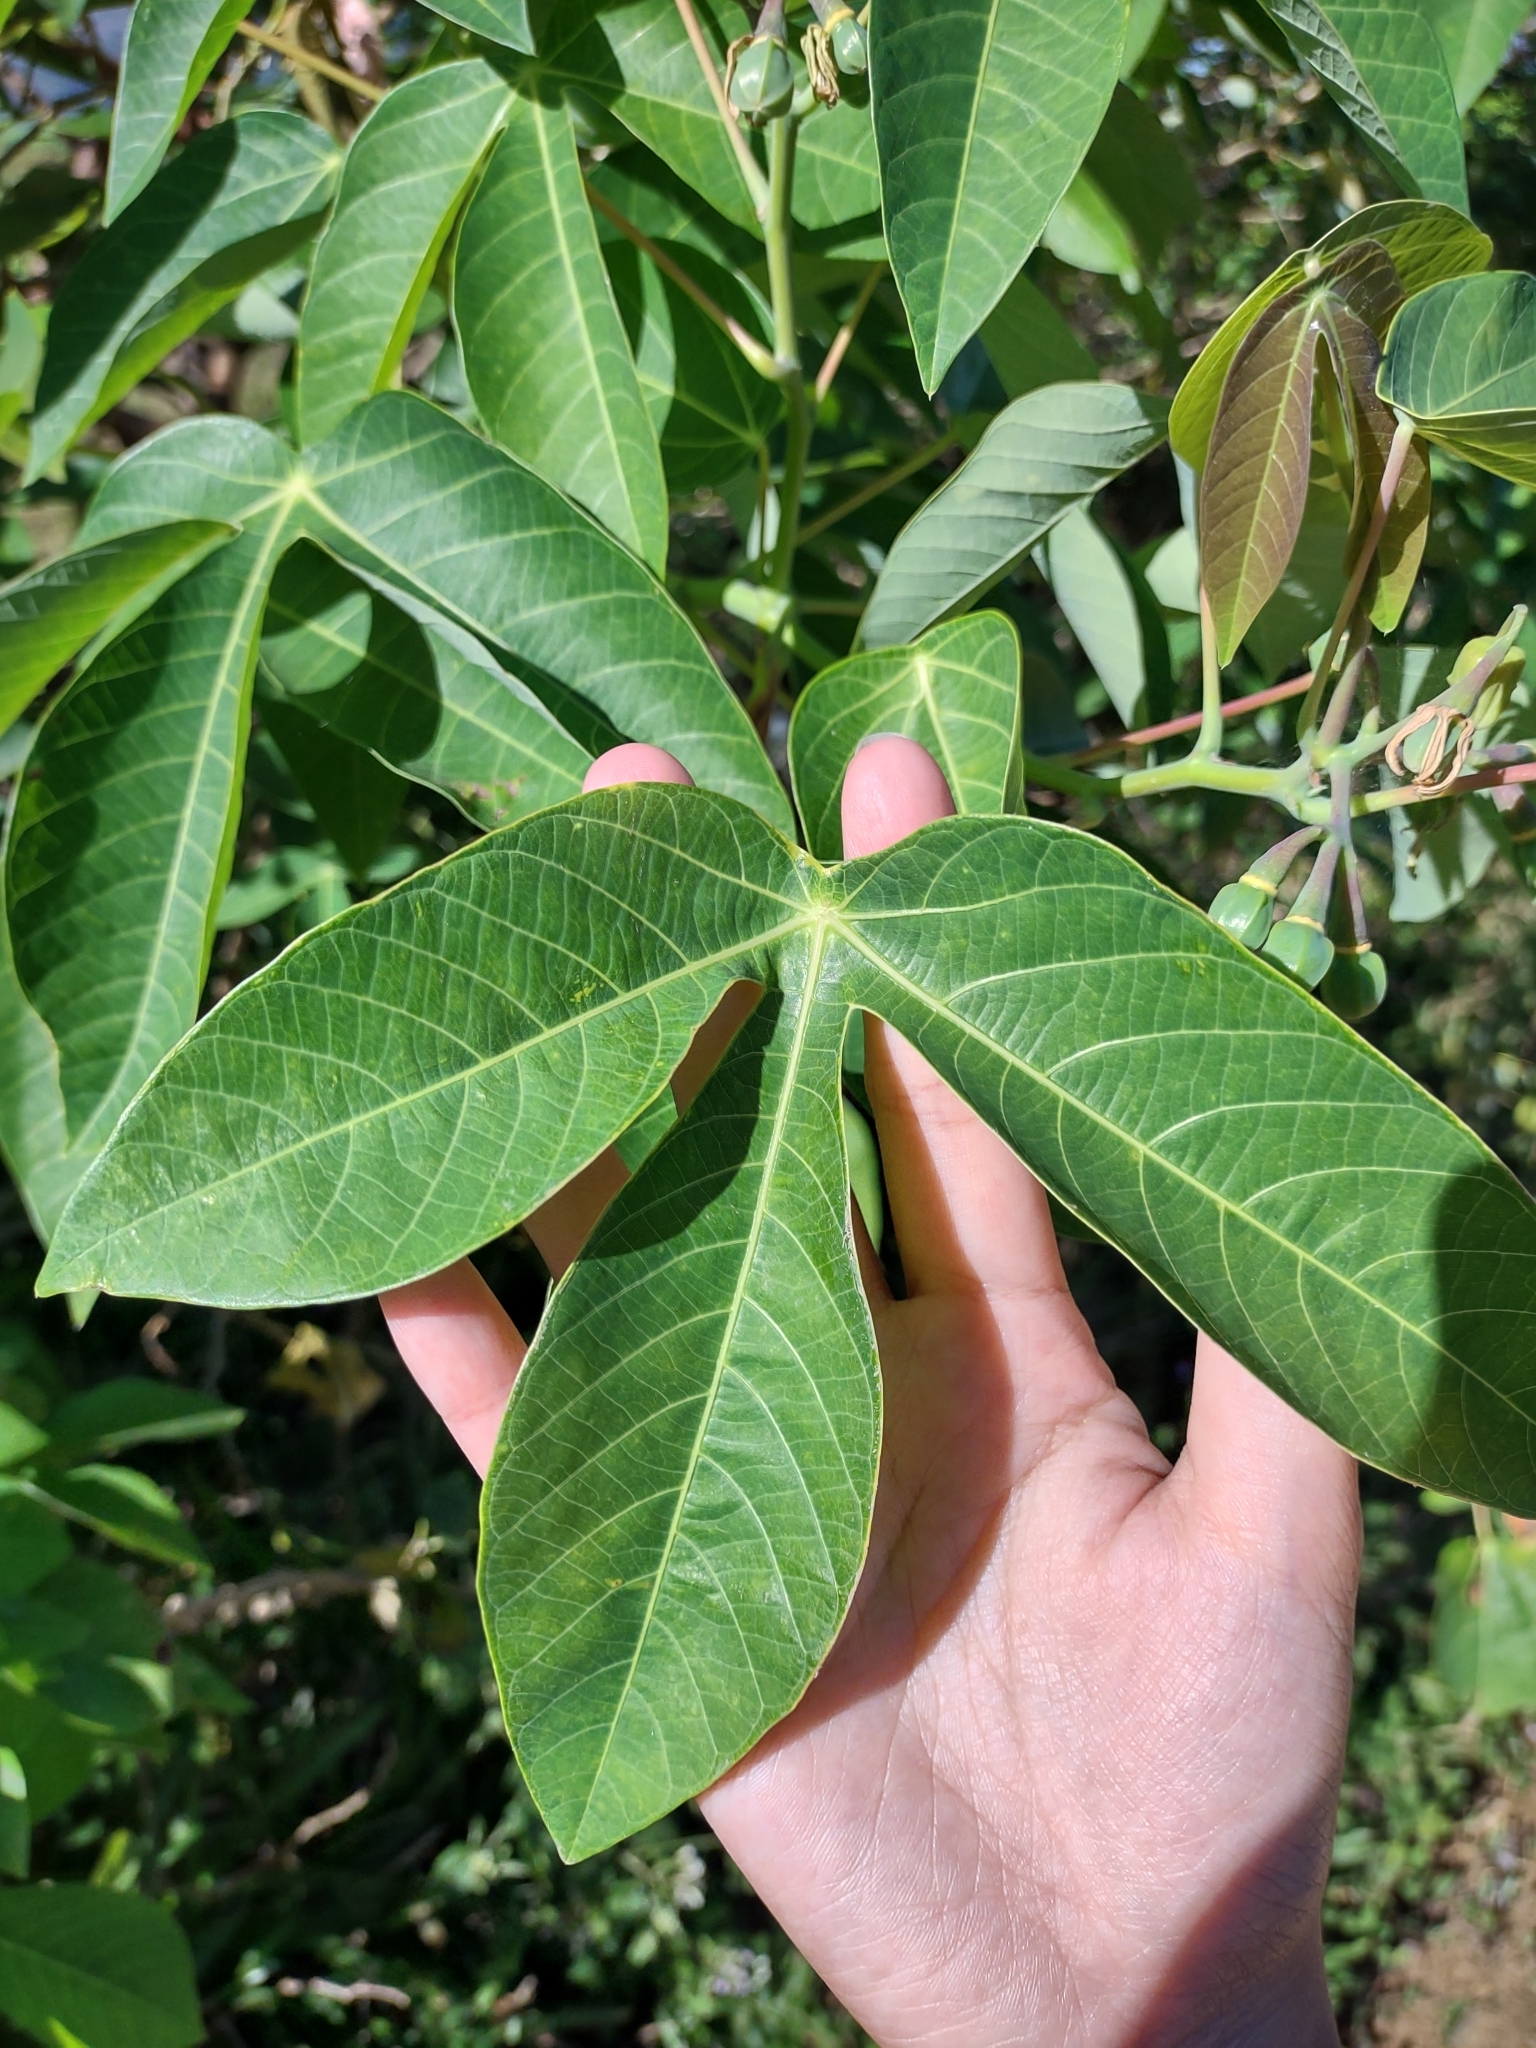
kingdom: Plantae
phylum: Tracheophyta
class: Magnoliopsida
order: Malpighiales
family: Euphorbiaceae
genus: Manihot
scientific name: Manihot esculenta
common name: Cassava
